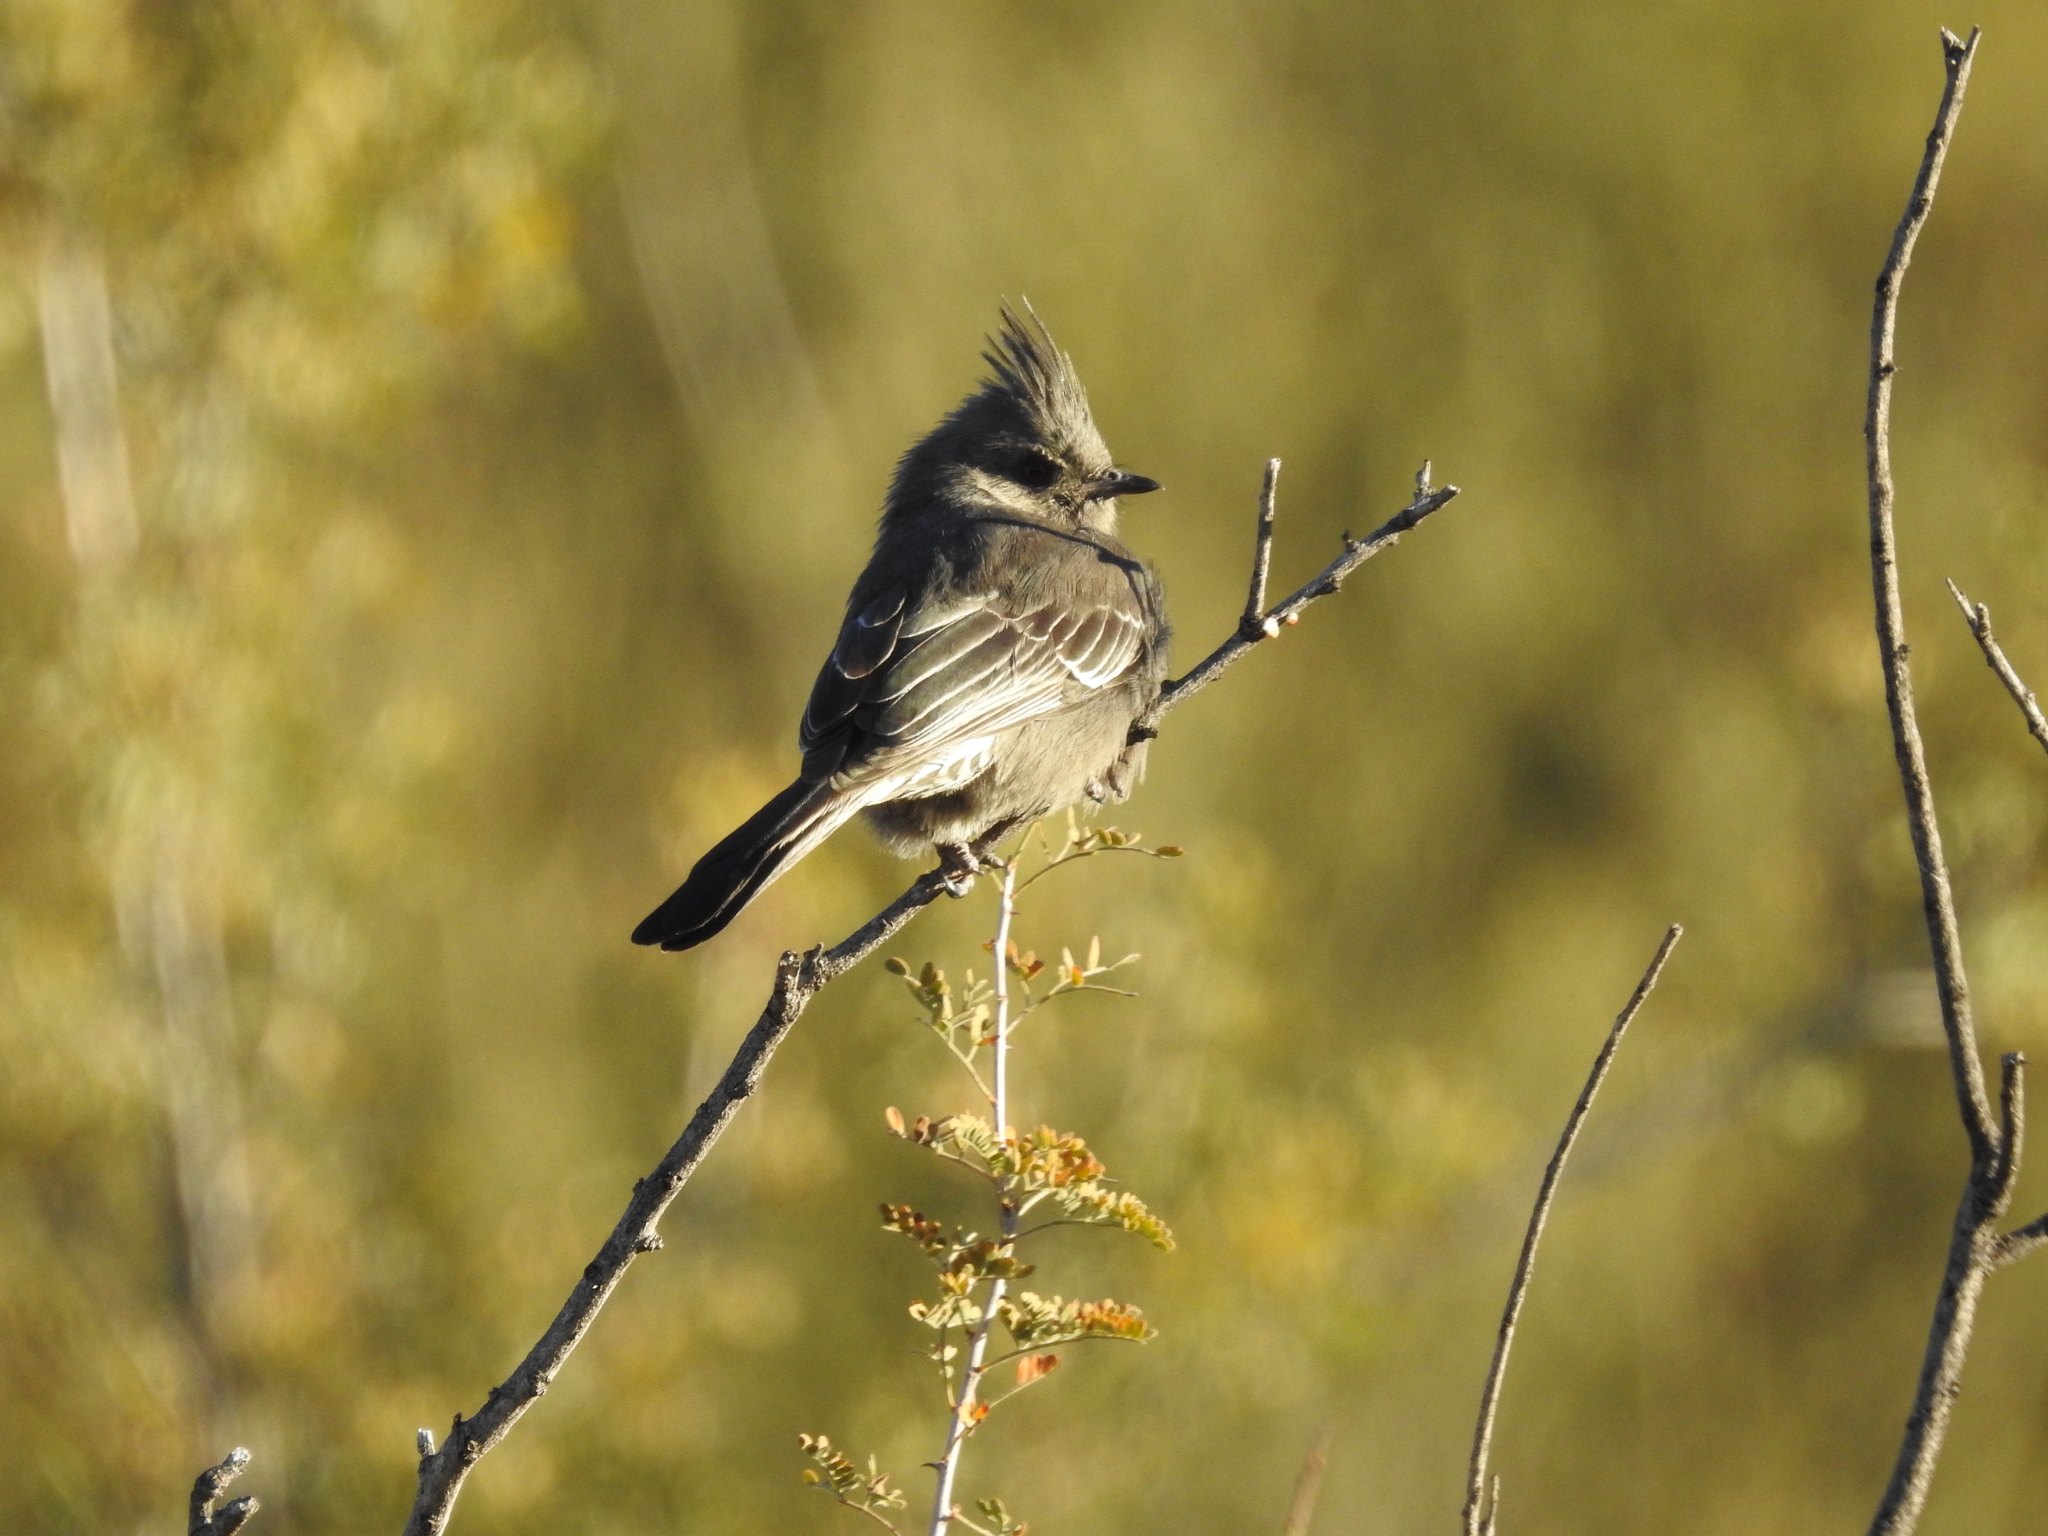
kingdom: Animalia
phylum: Chordata
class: Aves
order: Passeriformes
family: Ptilogonatidae
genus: Phainopepla
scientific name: Phainopepla nitens
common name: Phainopepla
